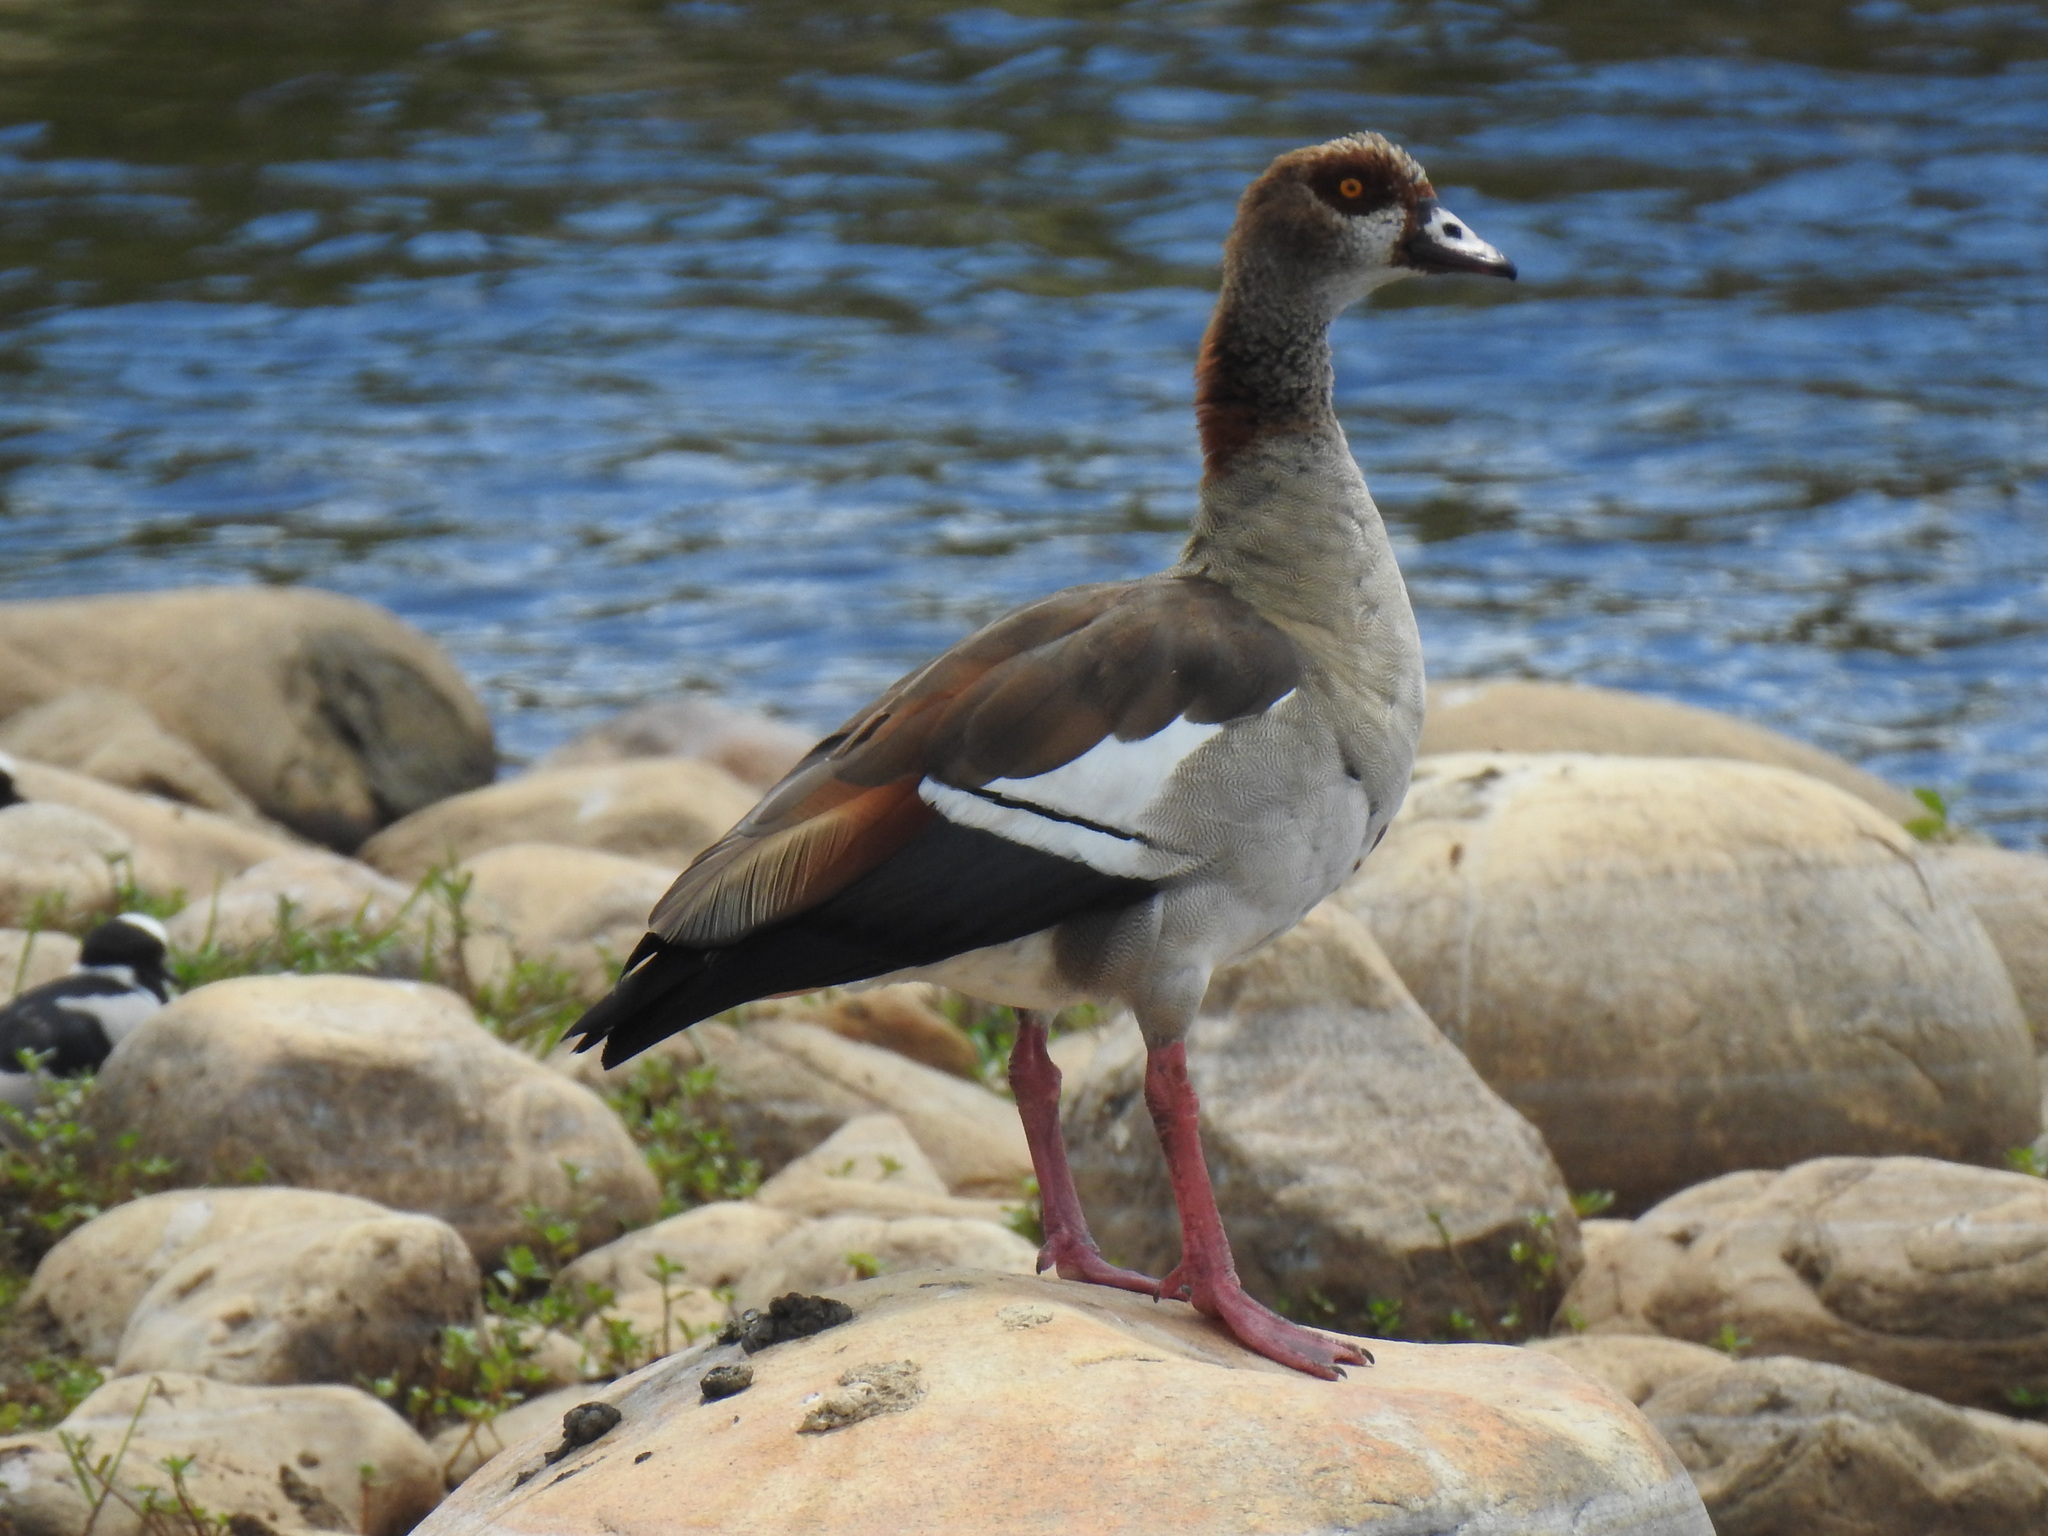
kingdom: Animalia
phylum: Chordata
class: Aves
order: Anseriformes
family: Anatidae
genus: Alopochen
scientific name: Alopochen aegyptiaca
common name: Egyptian goose
